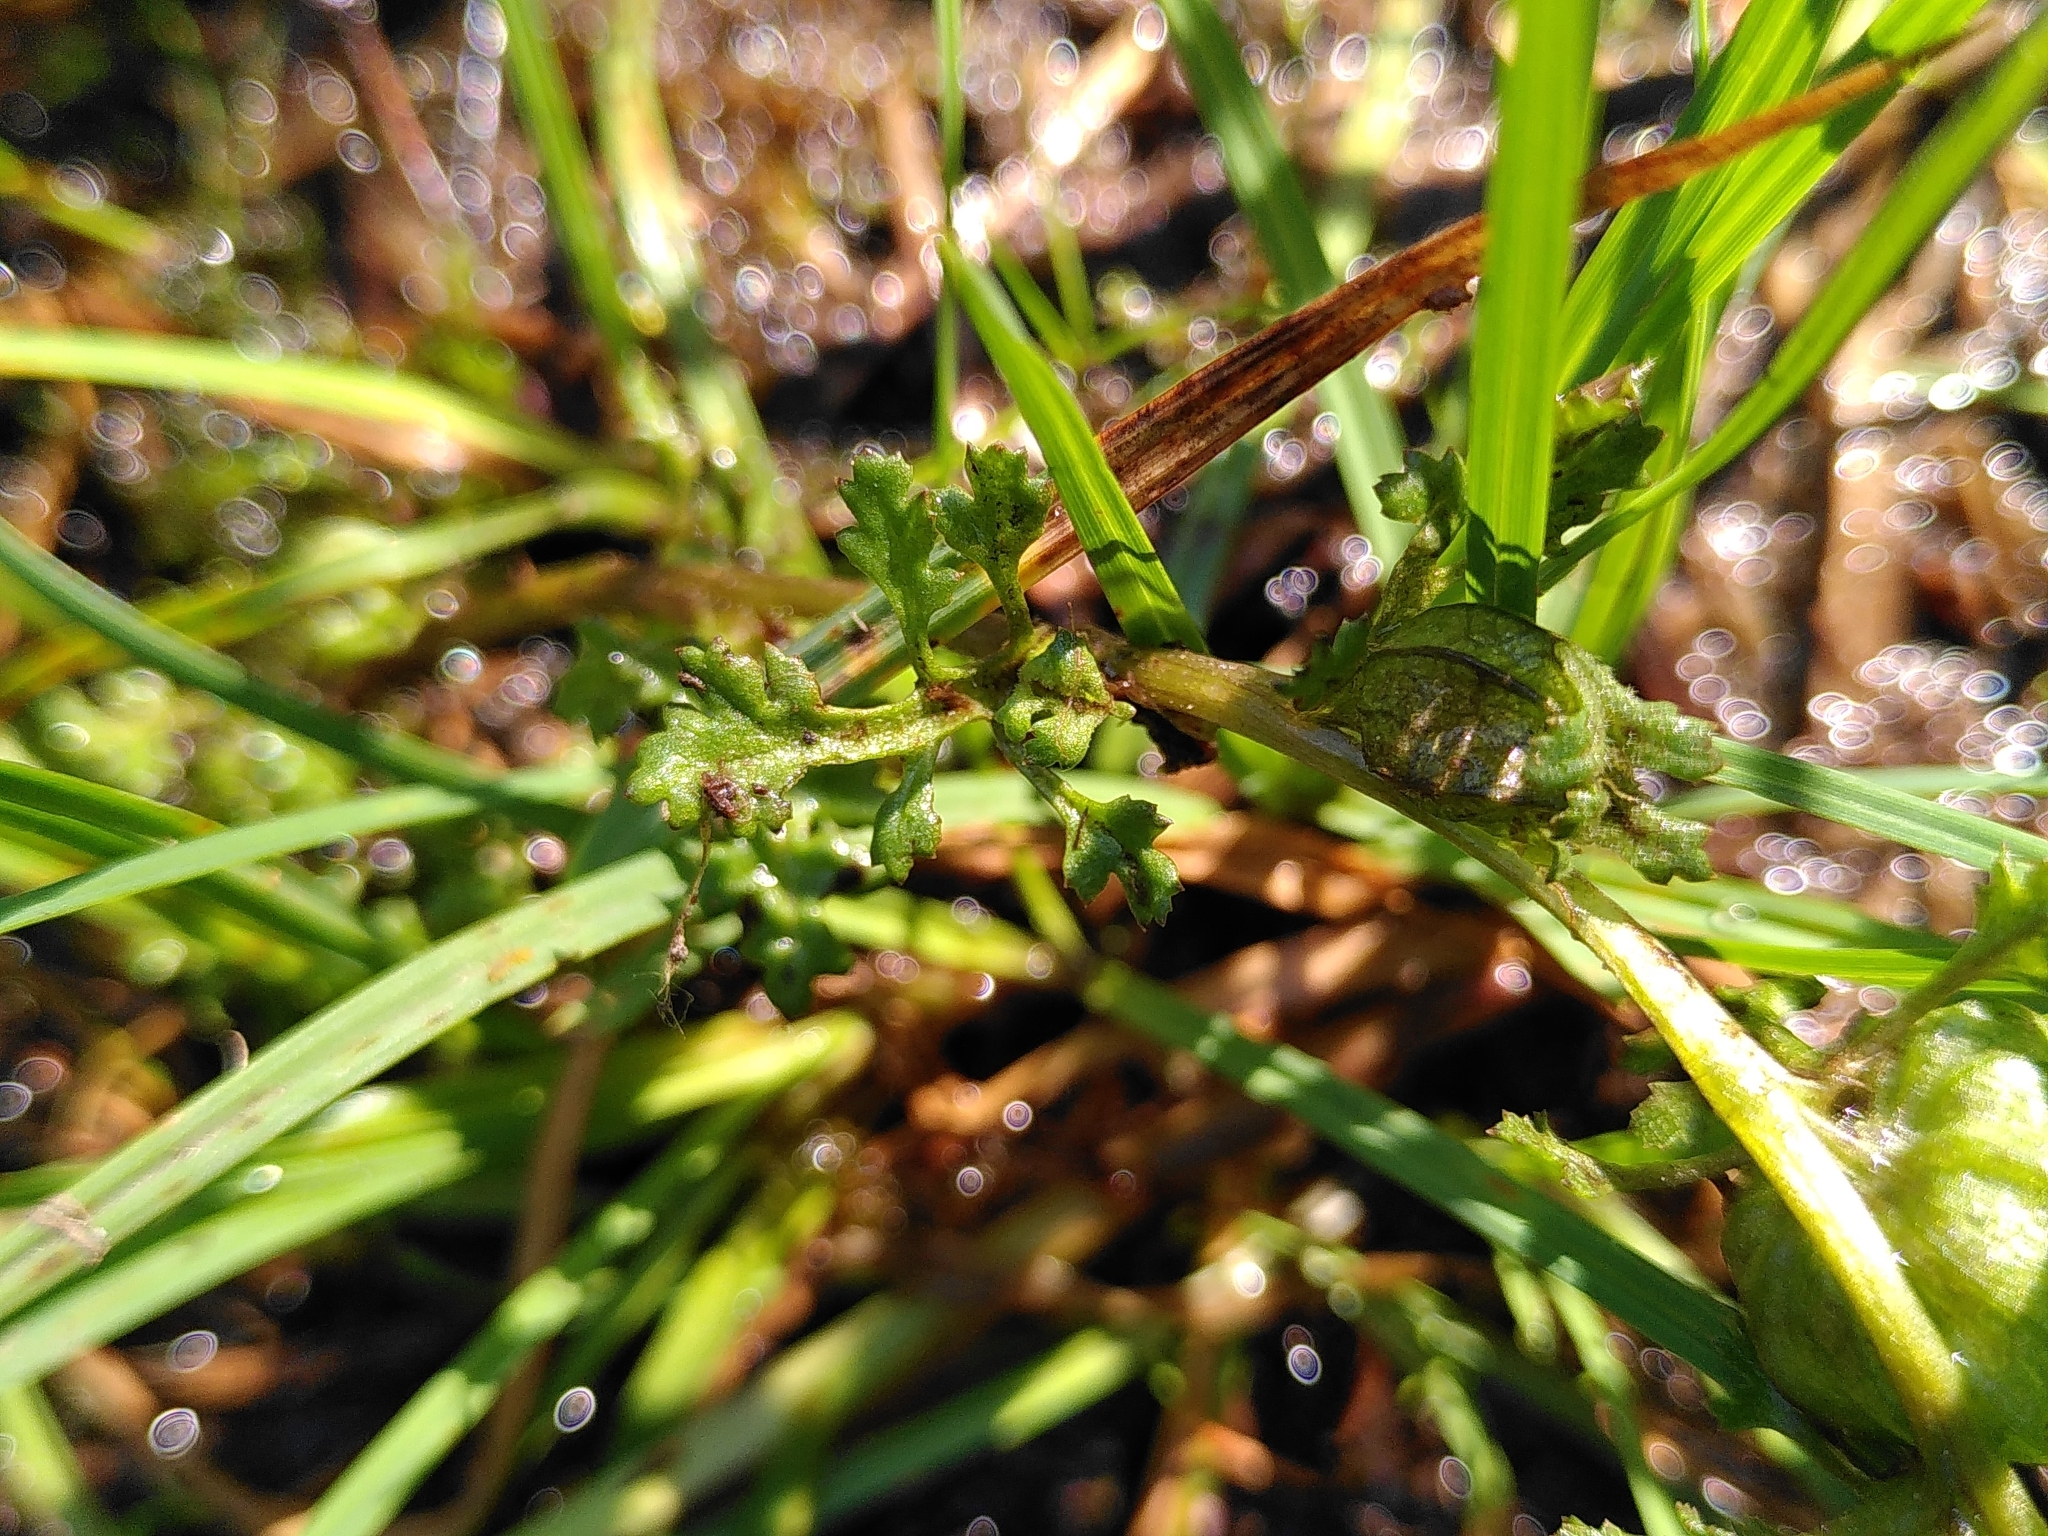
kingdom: Plantae
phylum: Tracheophyta
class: Magnoliopsida
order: Lamiales
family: Orobanchaceae
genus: Pedicularis
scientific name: Pedicularis sylvatica
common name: Lousewort
